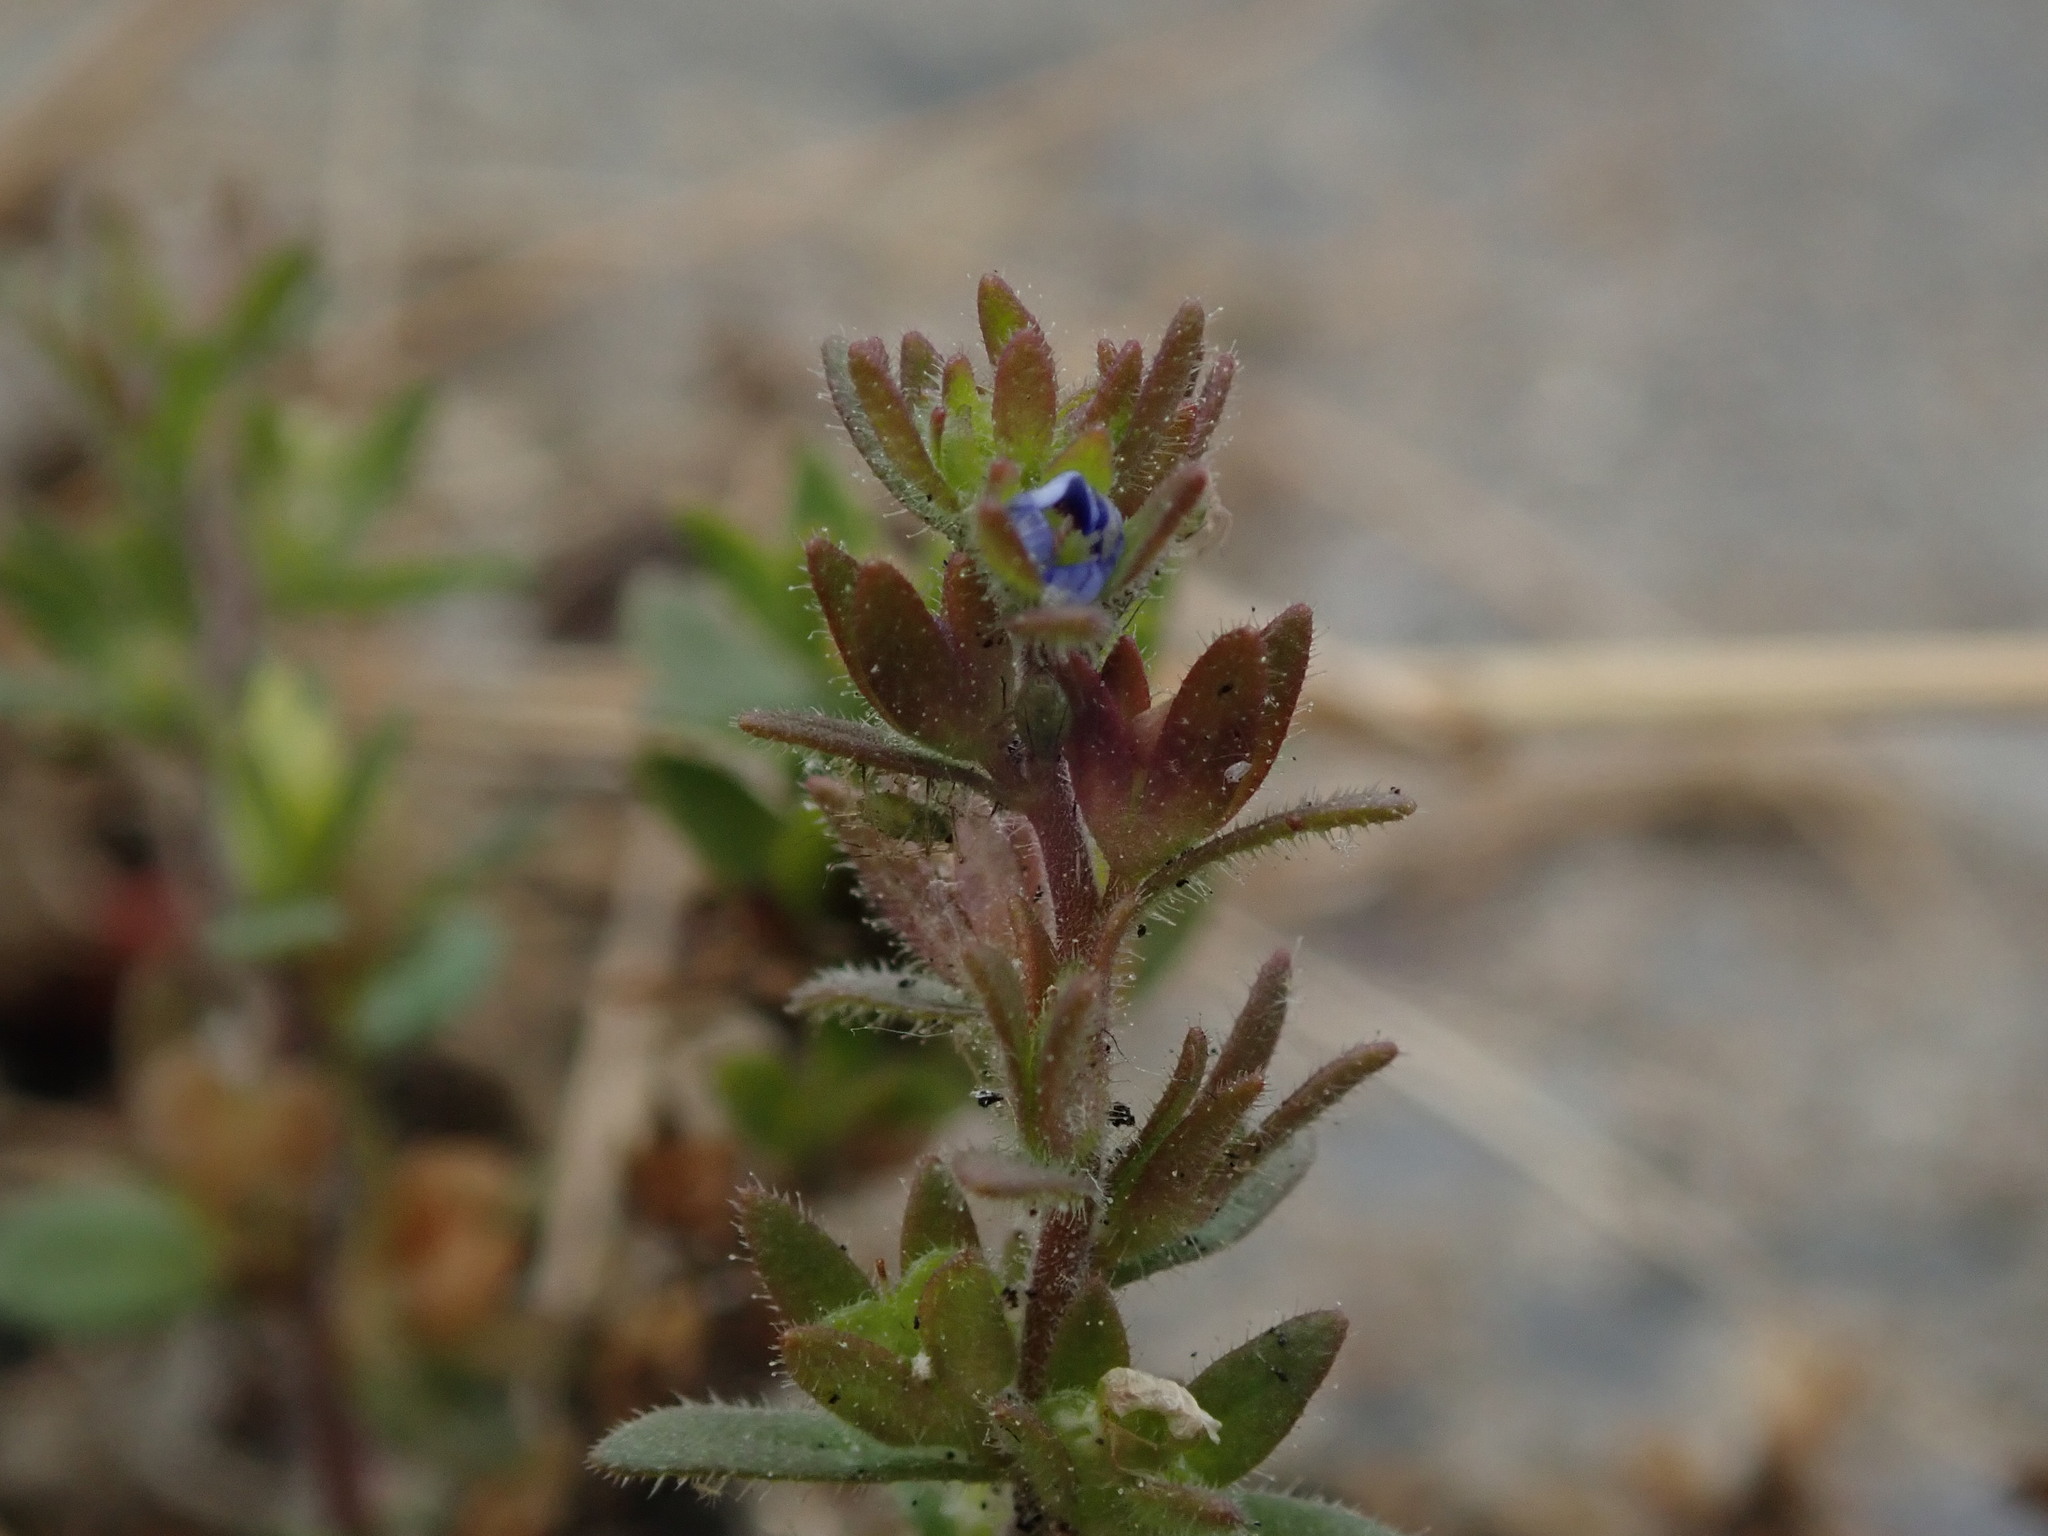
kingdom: Plantae
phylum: Tracheophyta
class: Magnoliopsida
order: Lamiales
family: Plantaginaceae
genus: Veronica
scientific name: Veronica arvensis
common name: Corn speedwell
